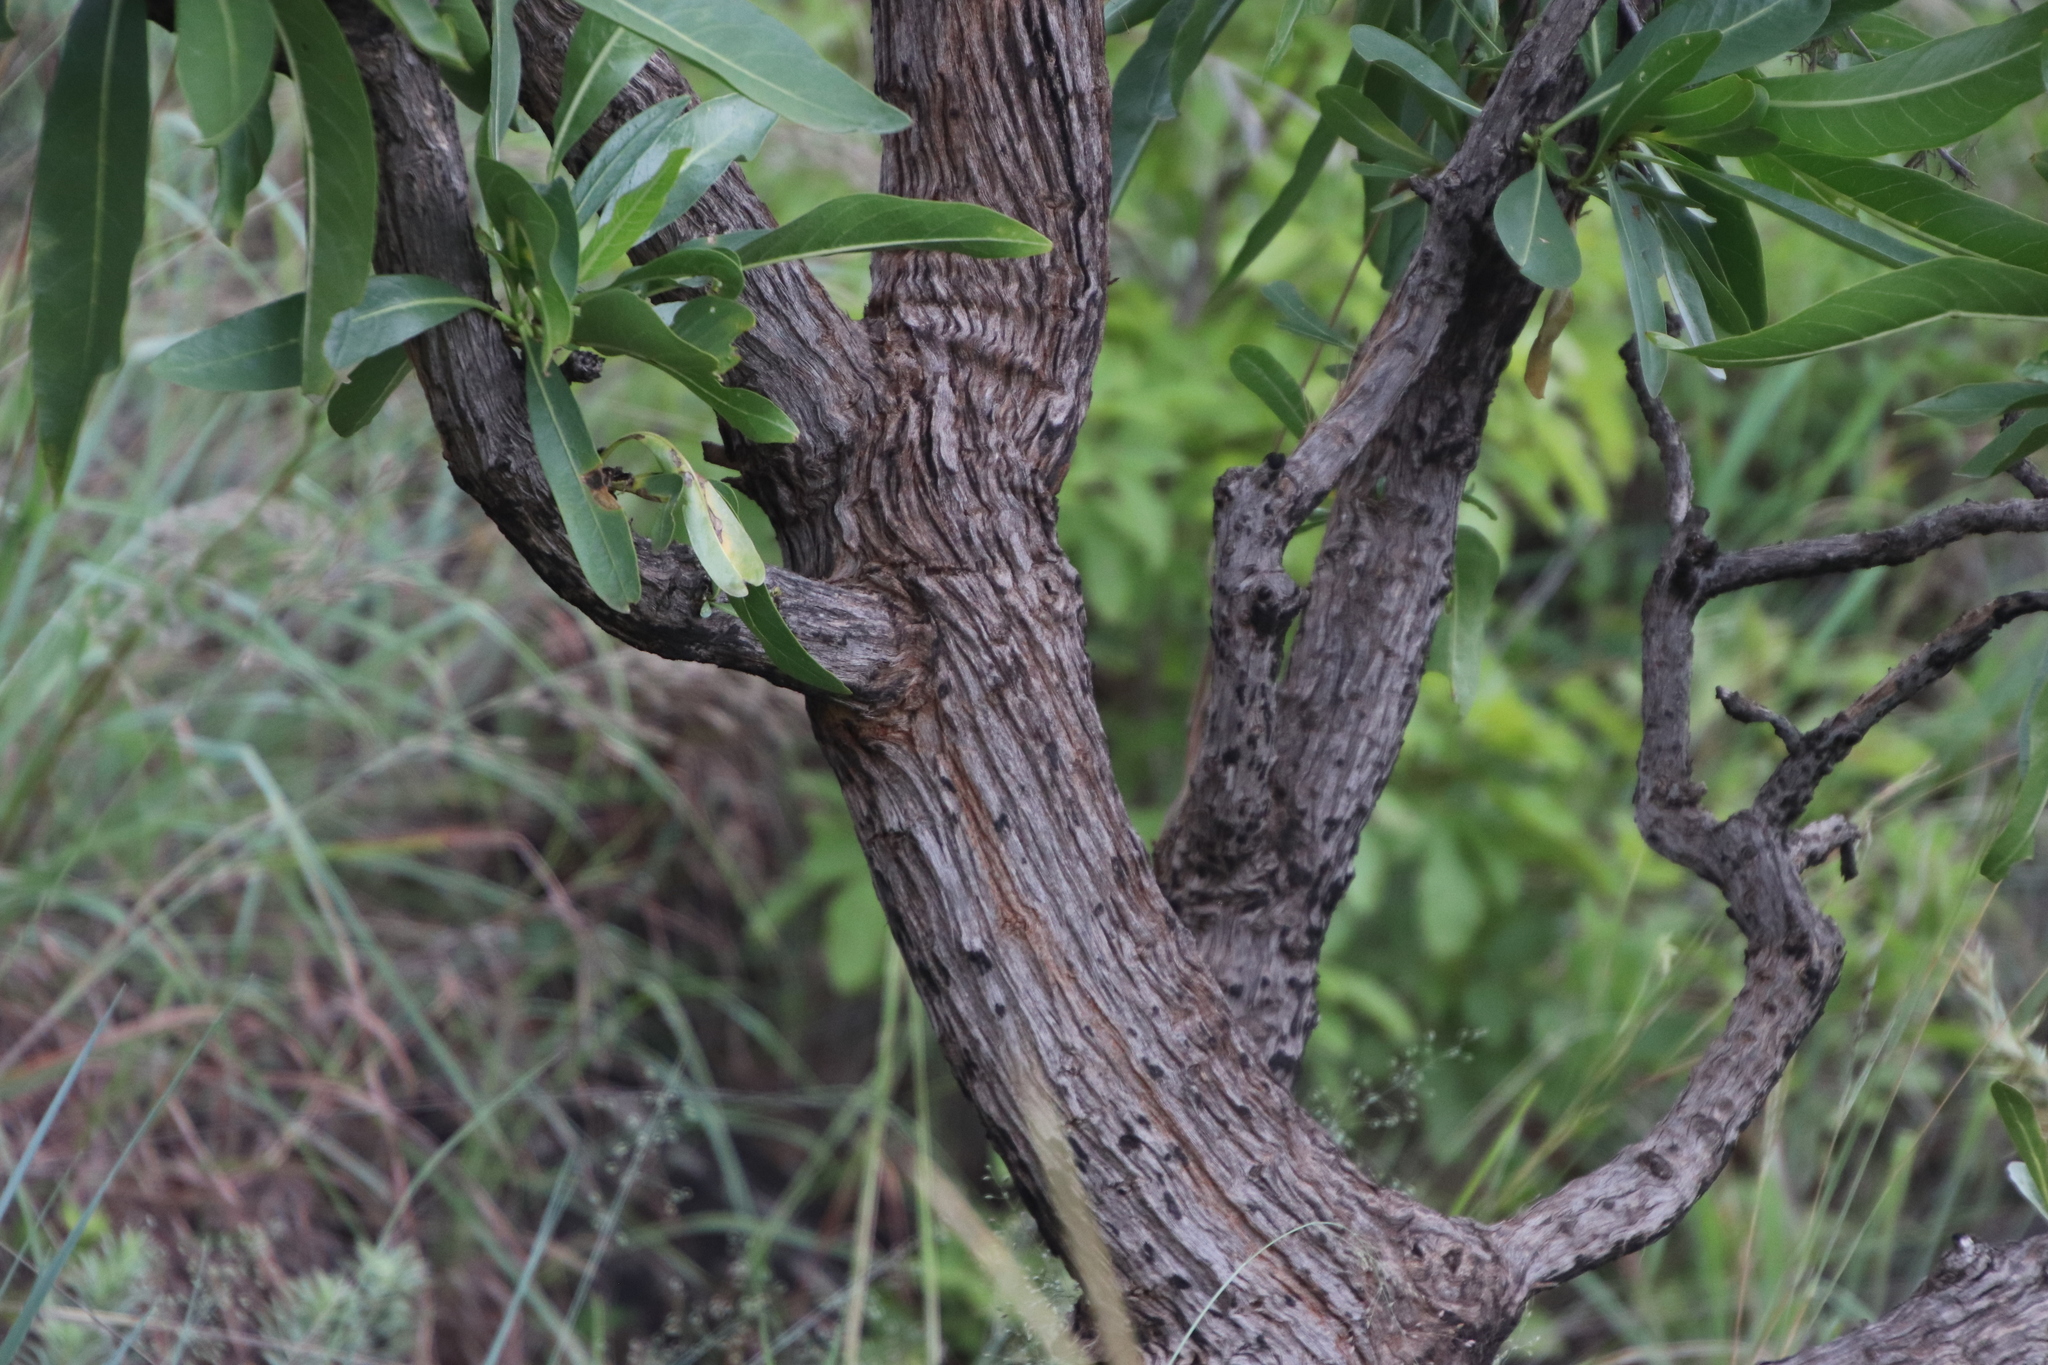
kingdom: Plantae
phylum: Tracheophyta
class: Magnoliopsida
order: Gentianales
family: Rubiaceae
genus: Pavetta
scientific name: Pavetta edentula
